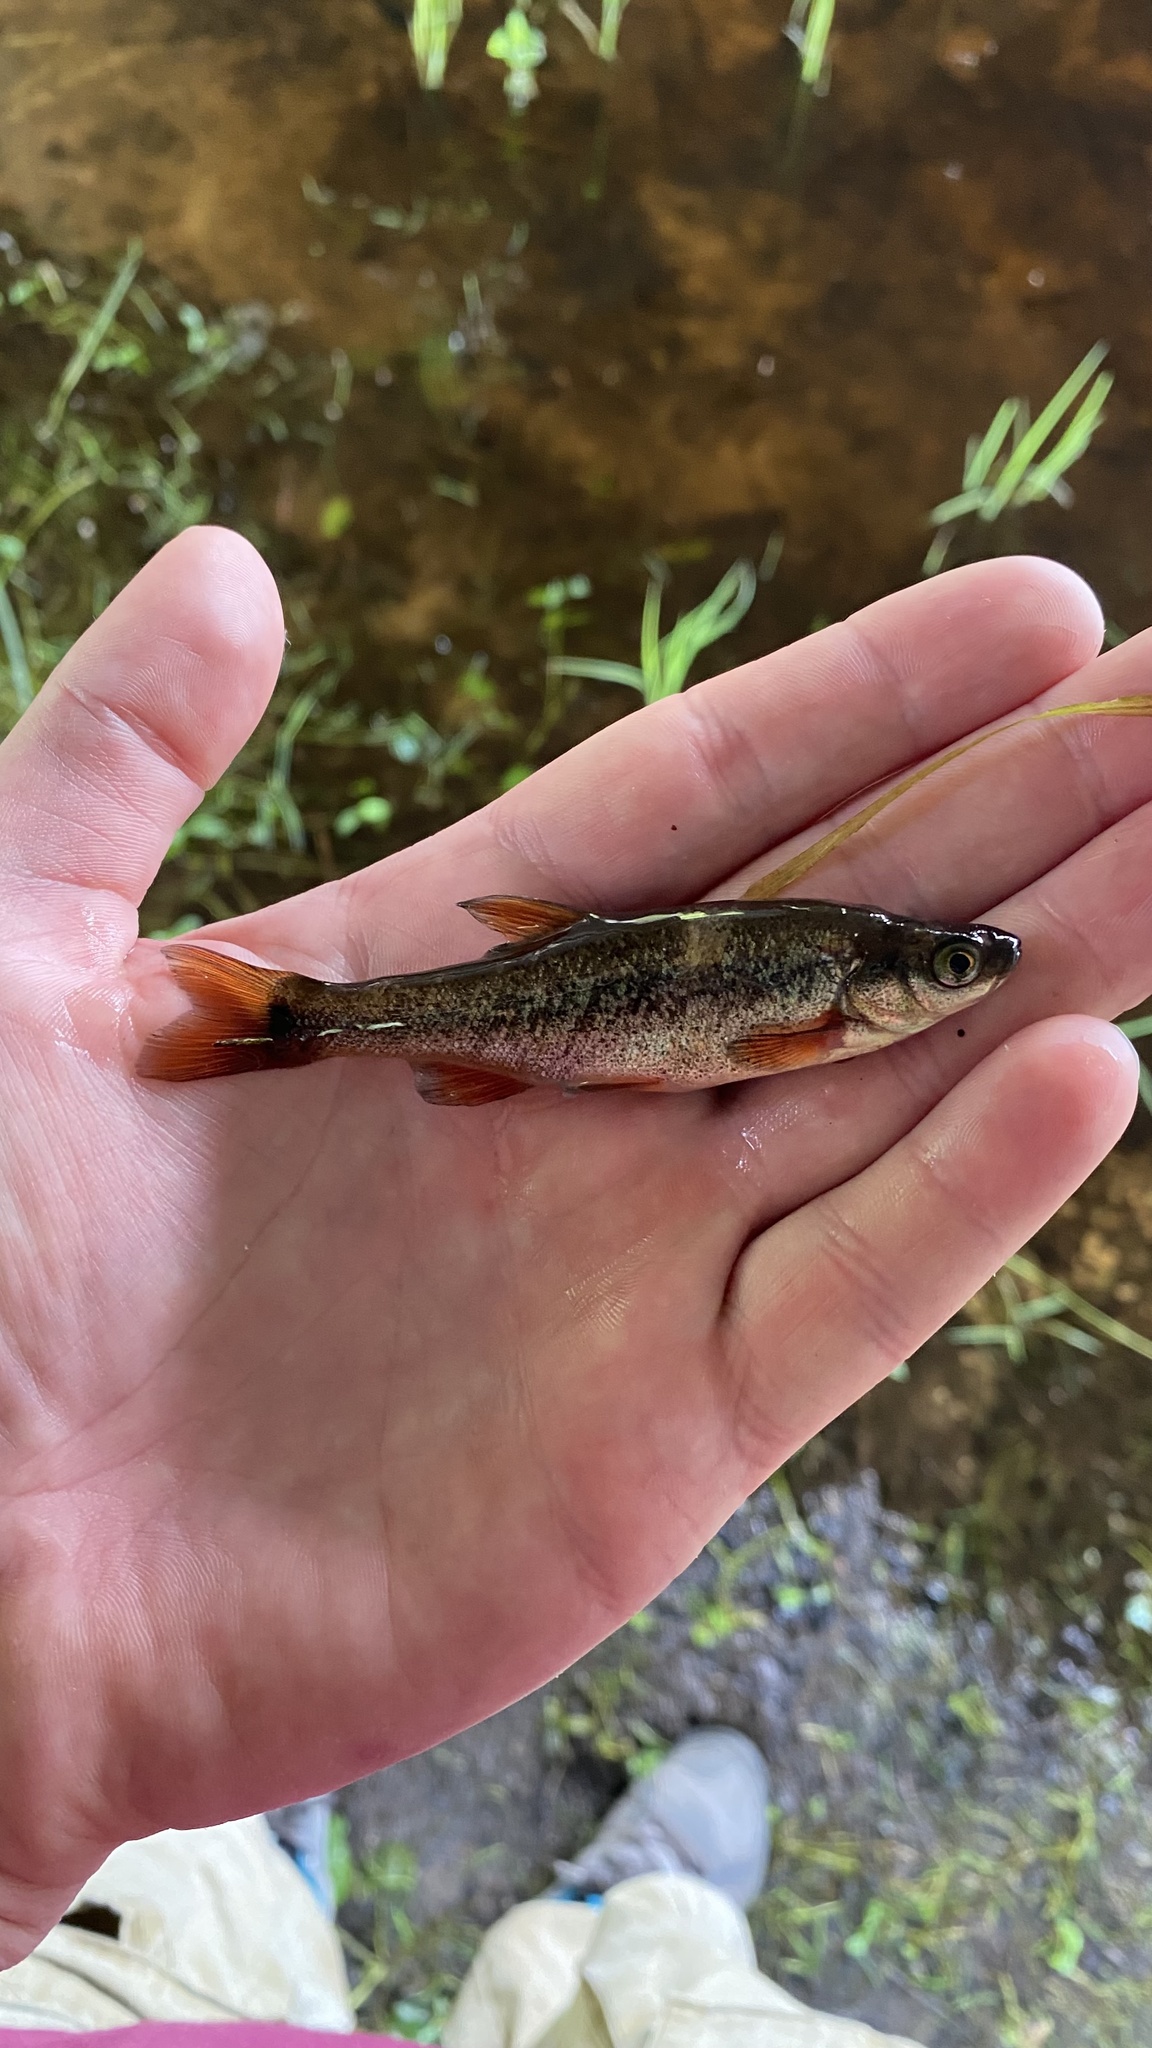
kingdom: Animalia
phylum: Chordata
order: Cypriniformes
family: Cyprinidae
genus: Rhynchocypris
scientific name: Rhynchocypris percnurus
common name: Swamp minnow
